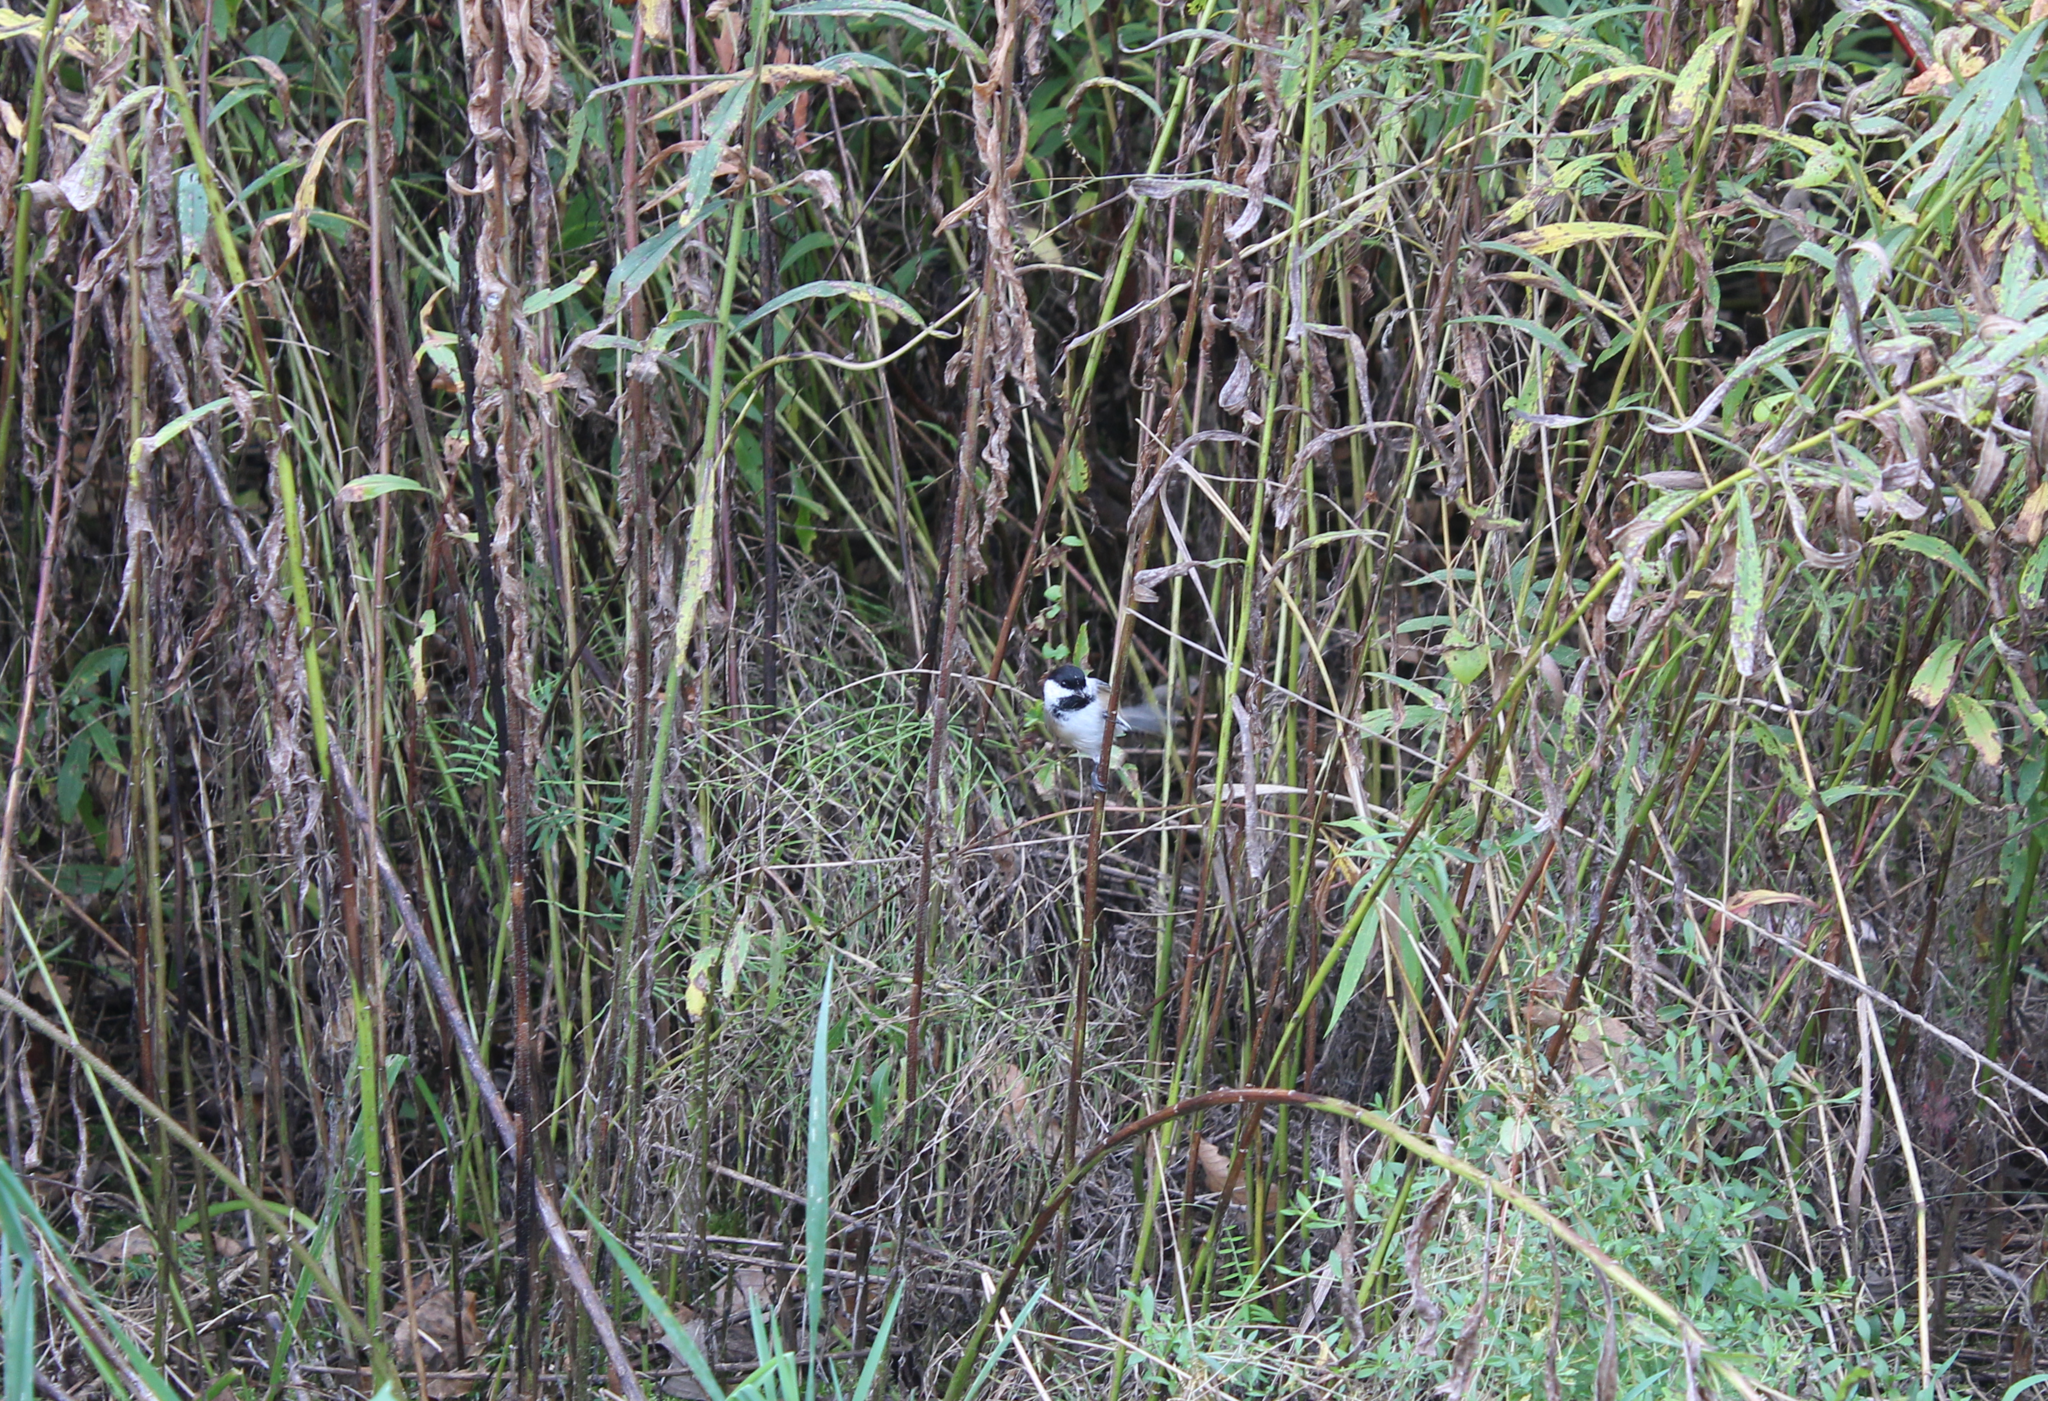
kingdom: Animalia
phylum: Chordata
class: Aves
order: Passeriformes
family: Paridae
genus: Poecile
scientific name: Poecile atricapillus
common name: Black-capped chickadee
